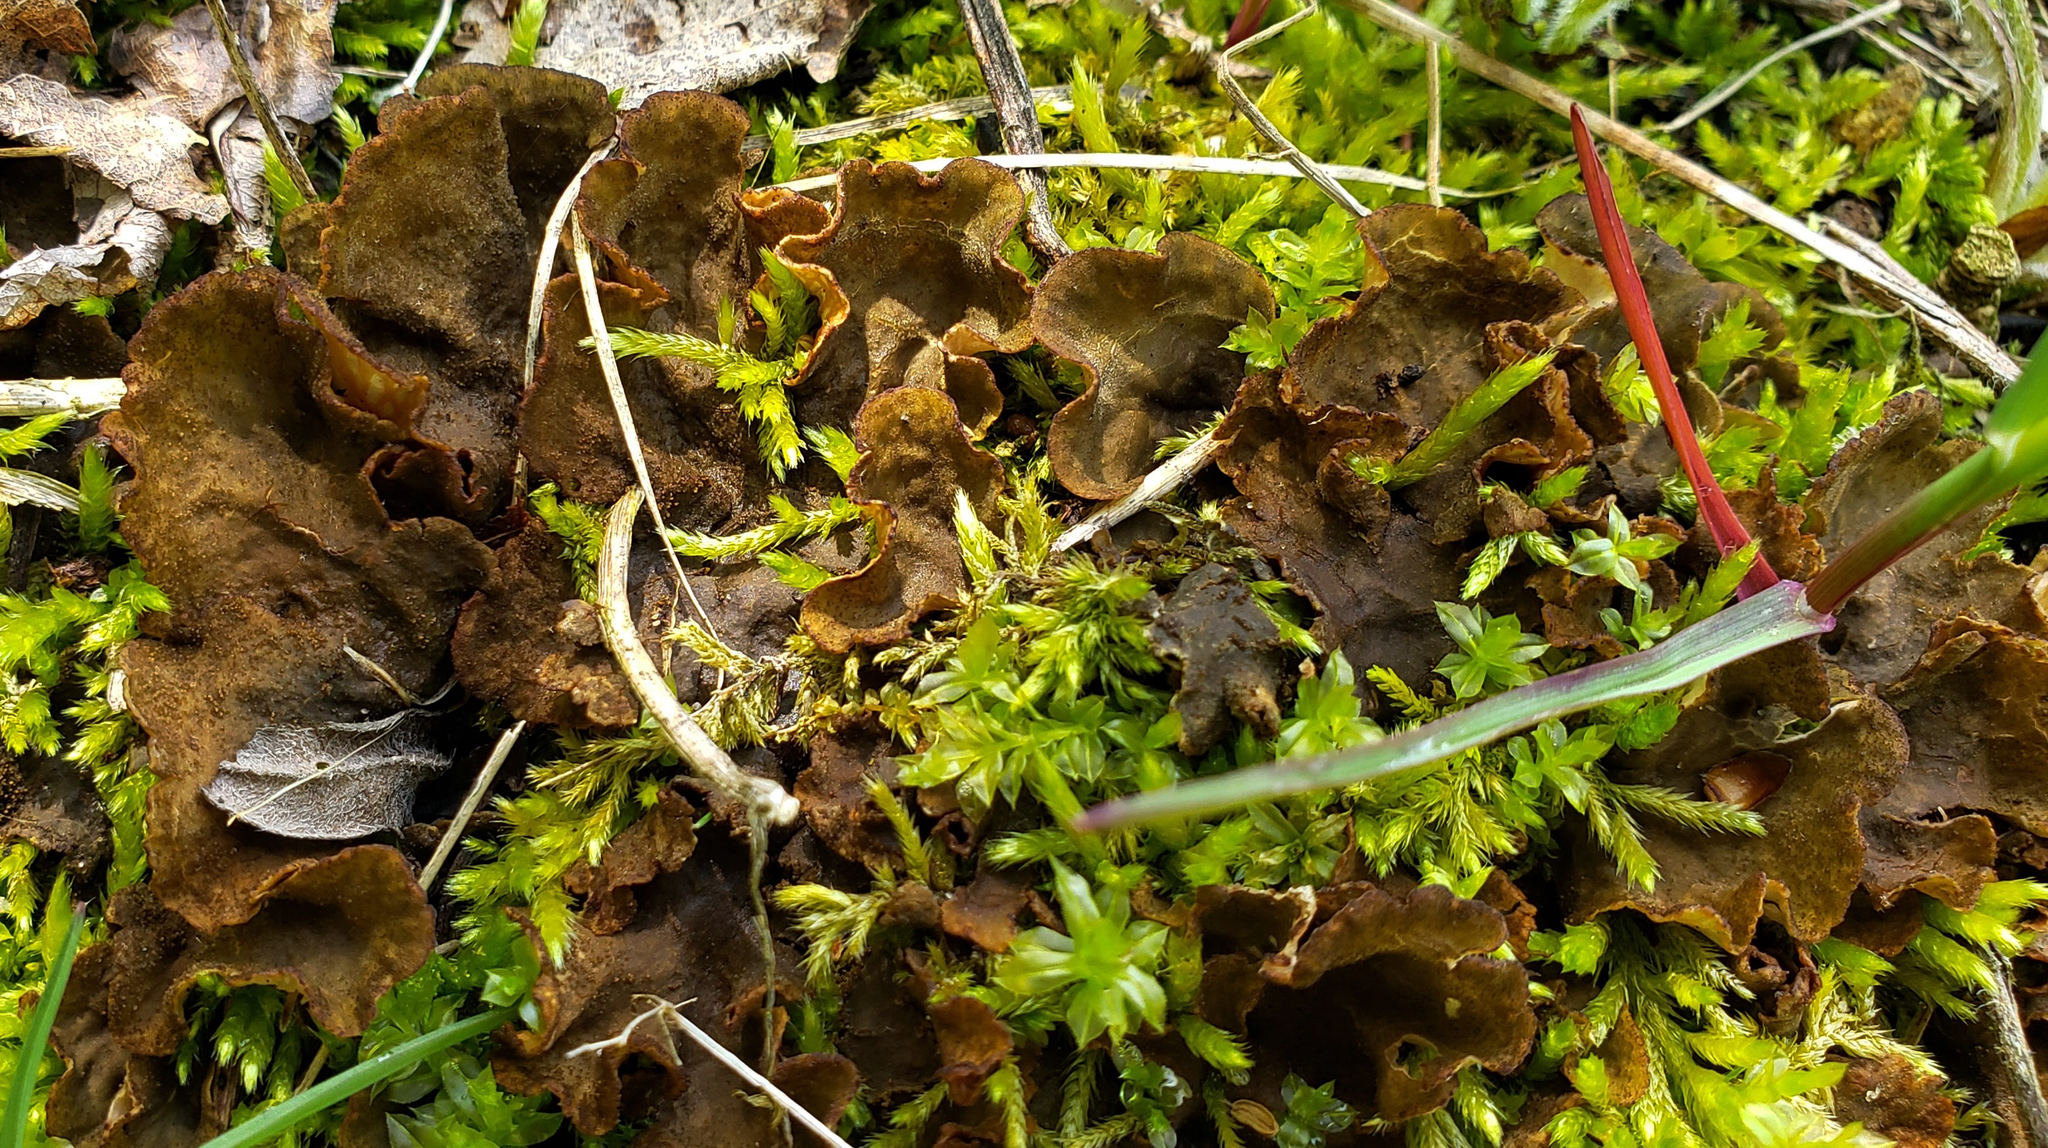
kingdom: Fungi
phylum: Ascomycota
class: Lecanoromycetes
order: Peltigerales
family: Peltigeraceae
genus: Peltigera
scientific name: Peltigera evansiana
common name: Peppered pelt lichen
